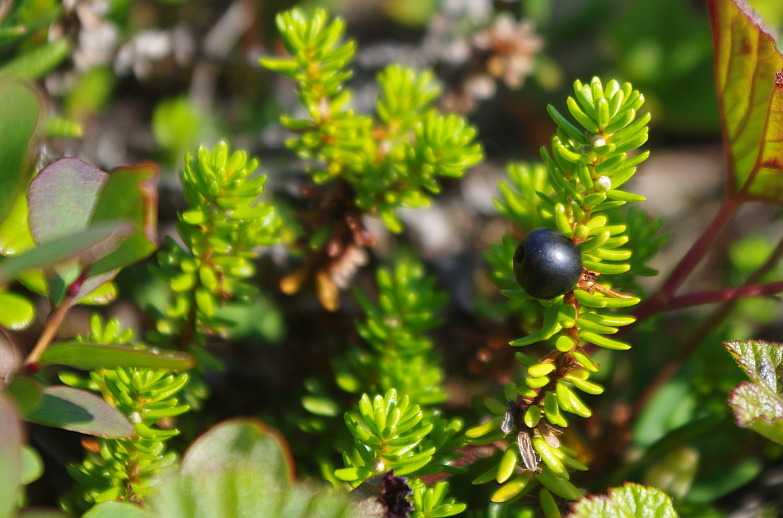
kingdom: Plantae
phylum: Tracheophyta
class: Magnoliopsida
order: Ericales
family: Ericaceae
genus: Empetrum
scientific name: Empetrum nigrum
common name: Black crowberry
